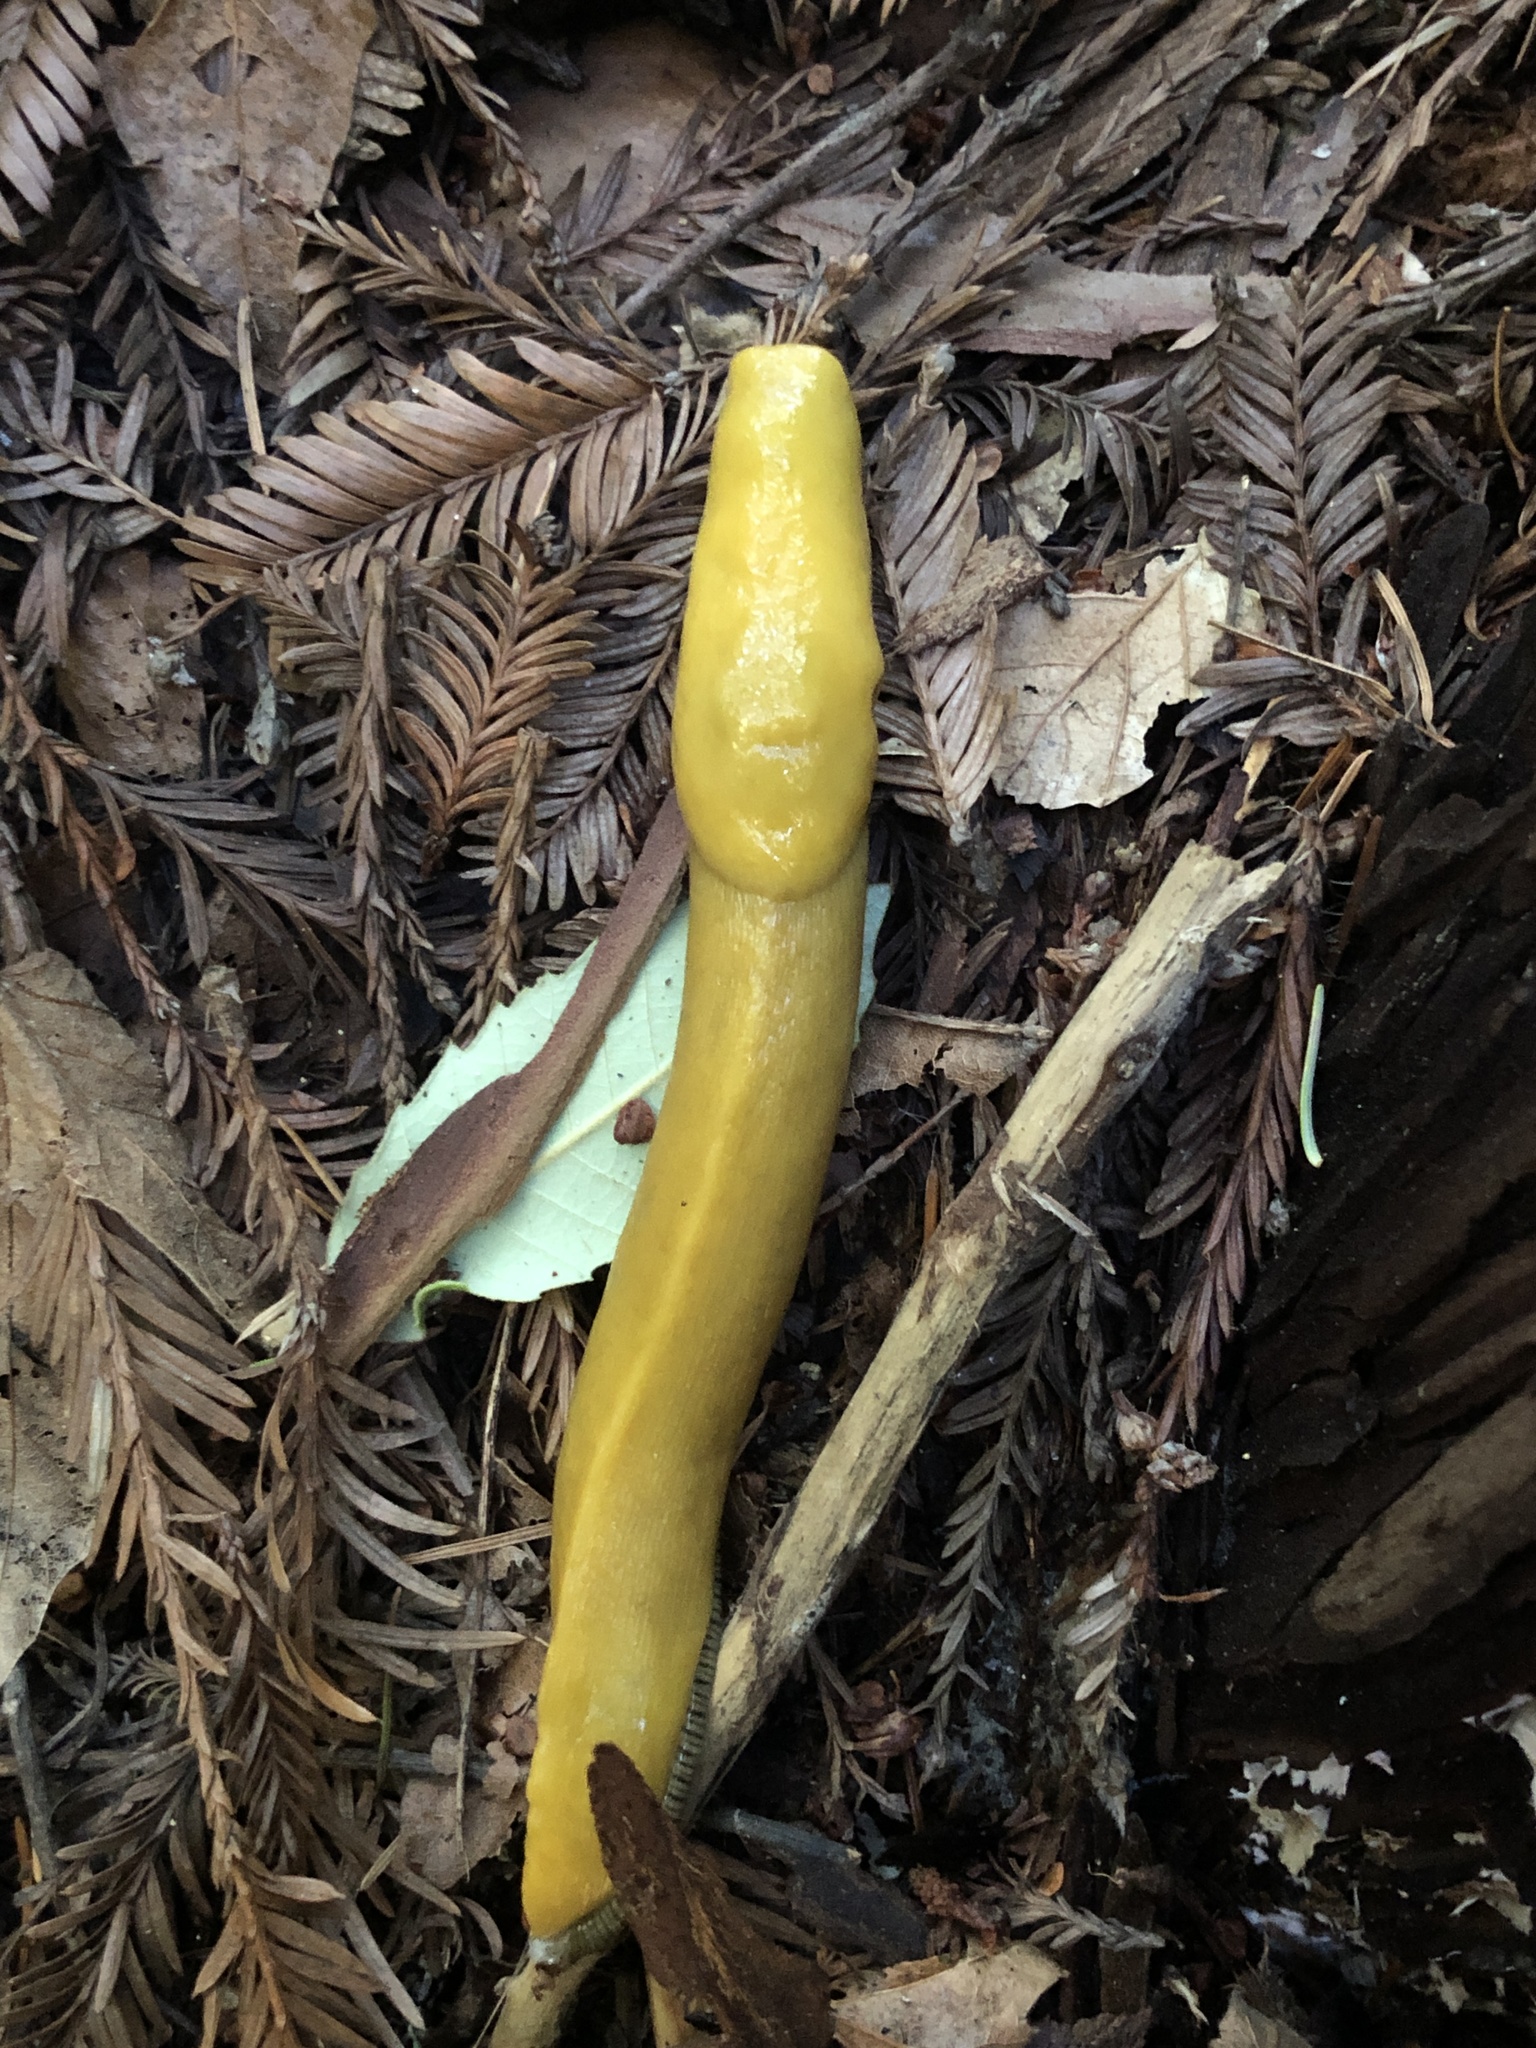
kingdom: Animalia
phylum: Mollusca
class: Gastropoda
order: Stylommatophora
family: Ariolimacidae
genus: Ariolimax
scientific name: Ariolimax californicus
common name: California banana slug
